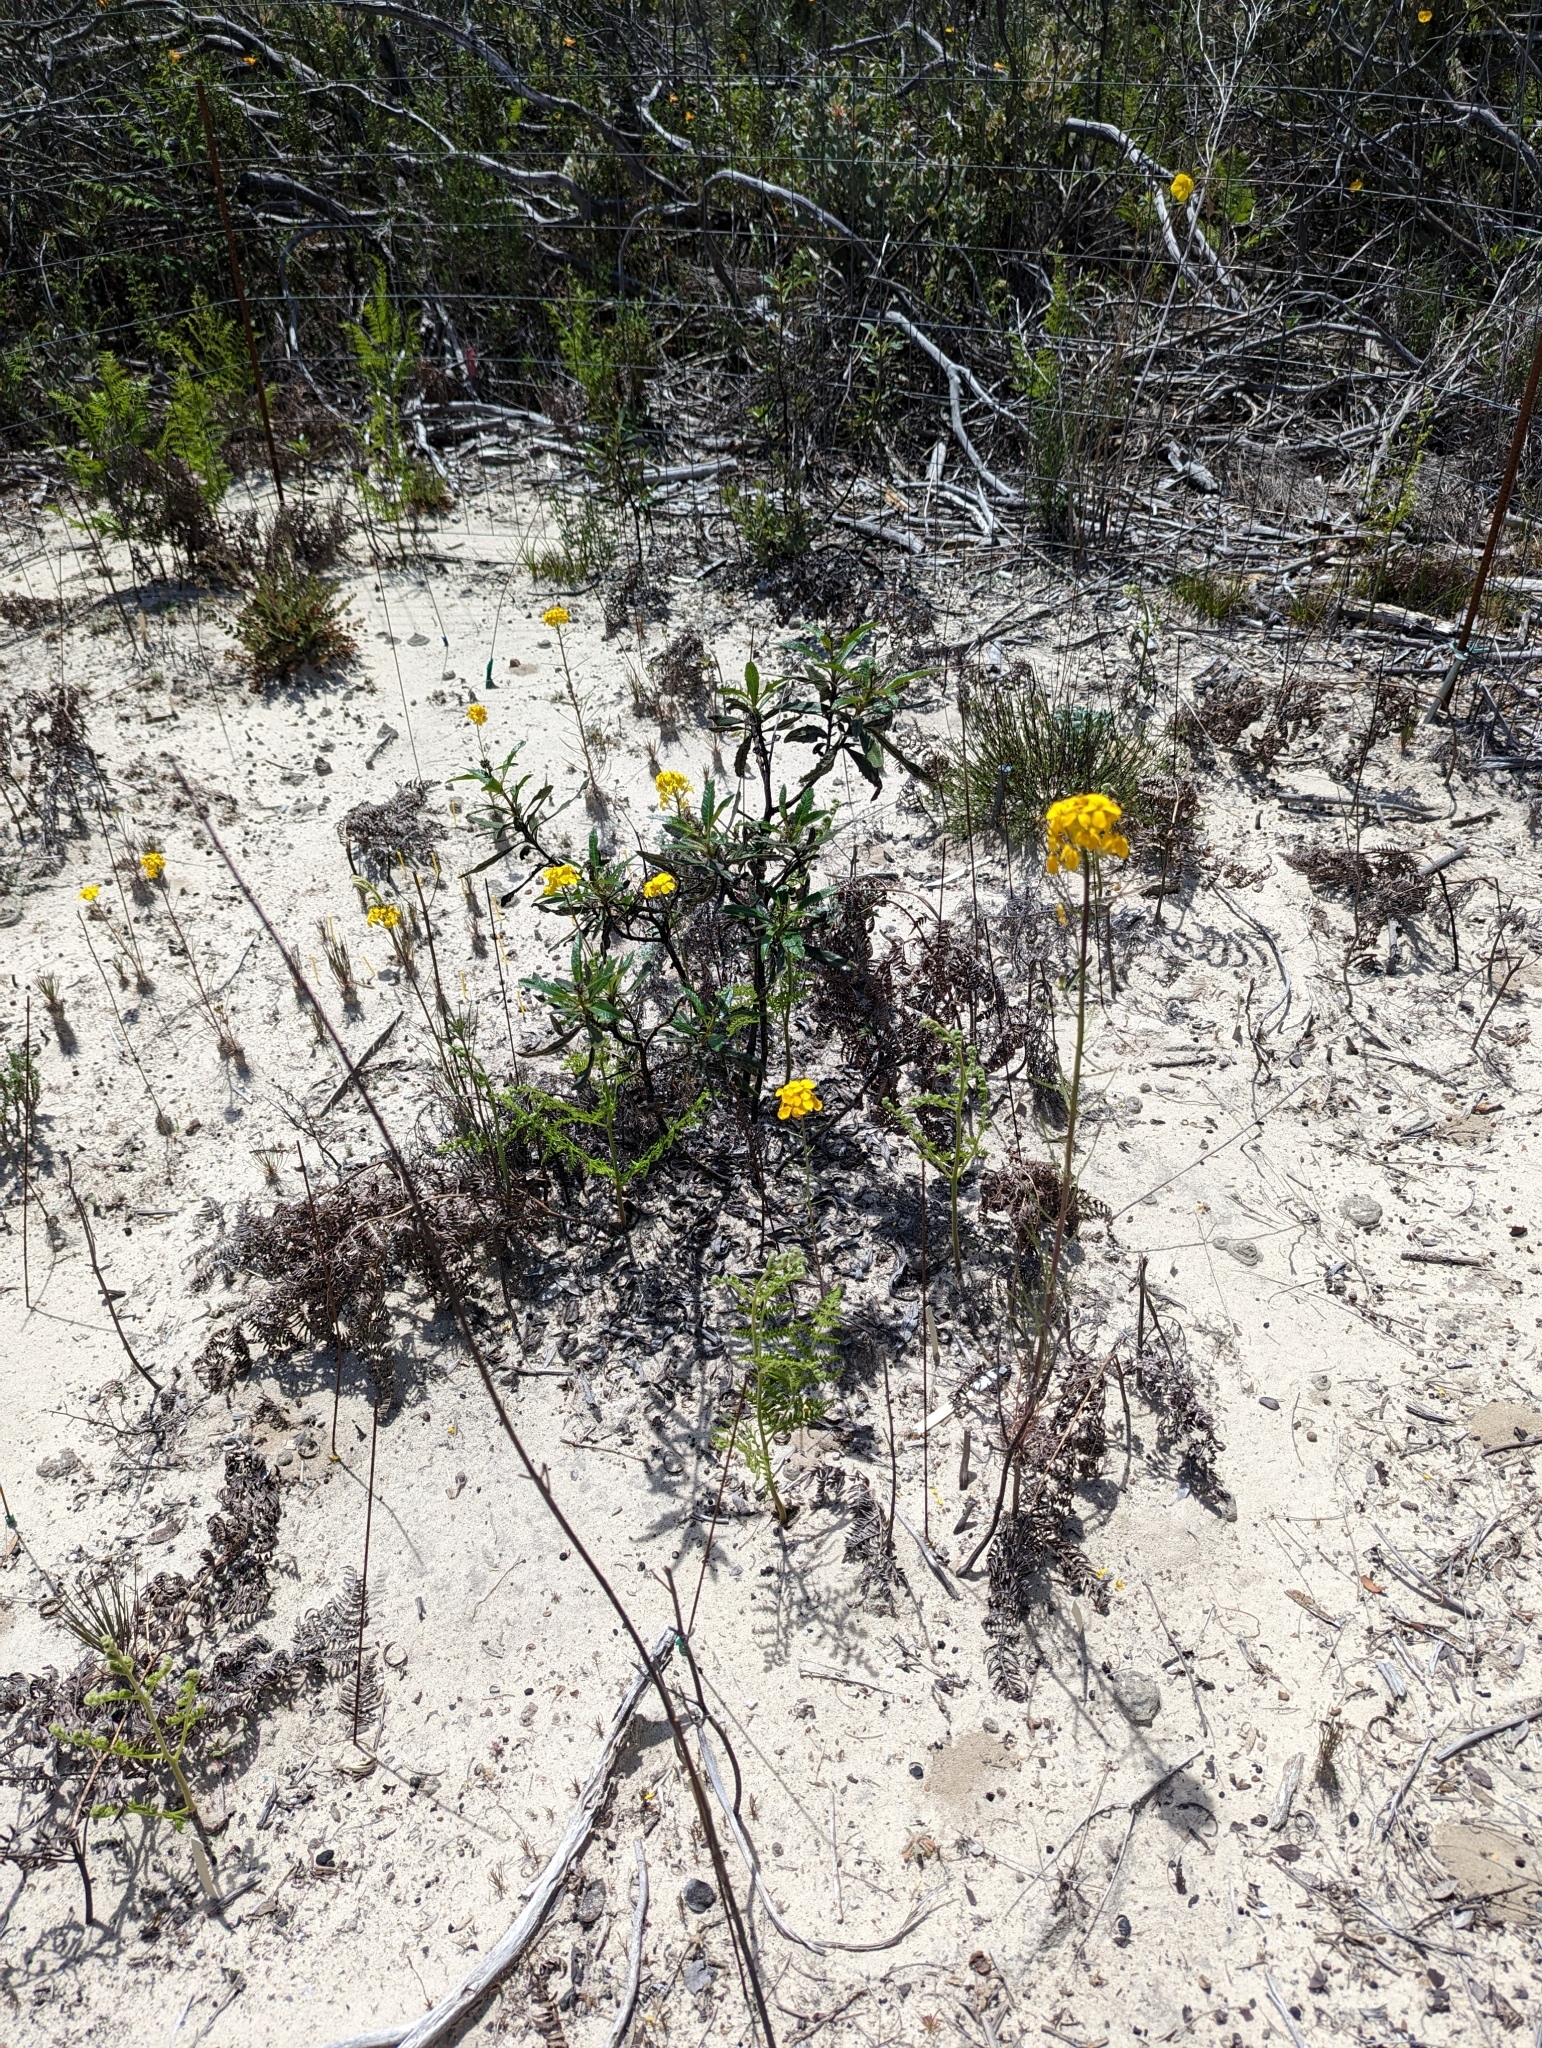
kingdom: Plantae
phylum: Tracheophyta
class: Magnoliopsida
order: Brassicales
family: Brassicaceae
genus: Erysimum
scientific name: Erysimum teretifolium
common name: Ben lomond wallflower
